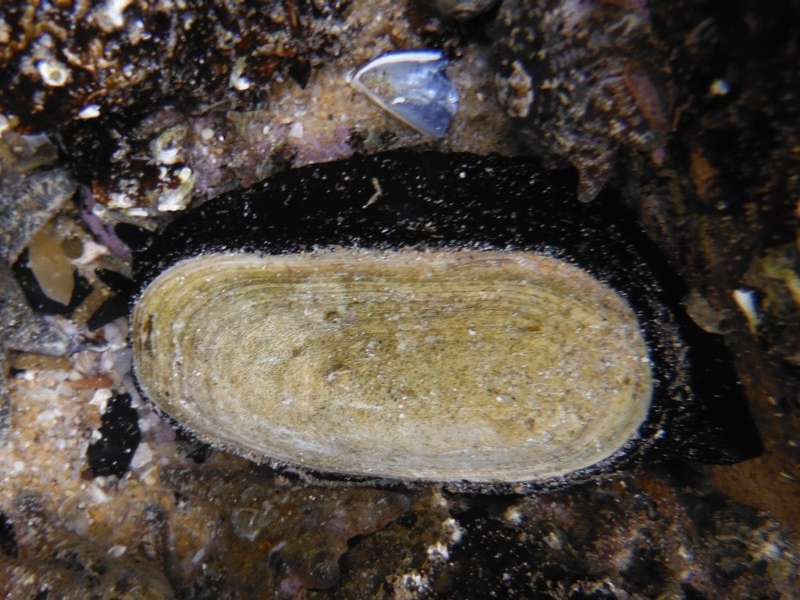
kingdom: Animalia
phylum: Mollusca
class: Gastropoda
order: Lepetellida
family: Fissurellidae
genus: Scutus
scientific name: Scutus antipodes
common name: Duckbill shell
